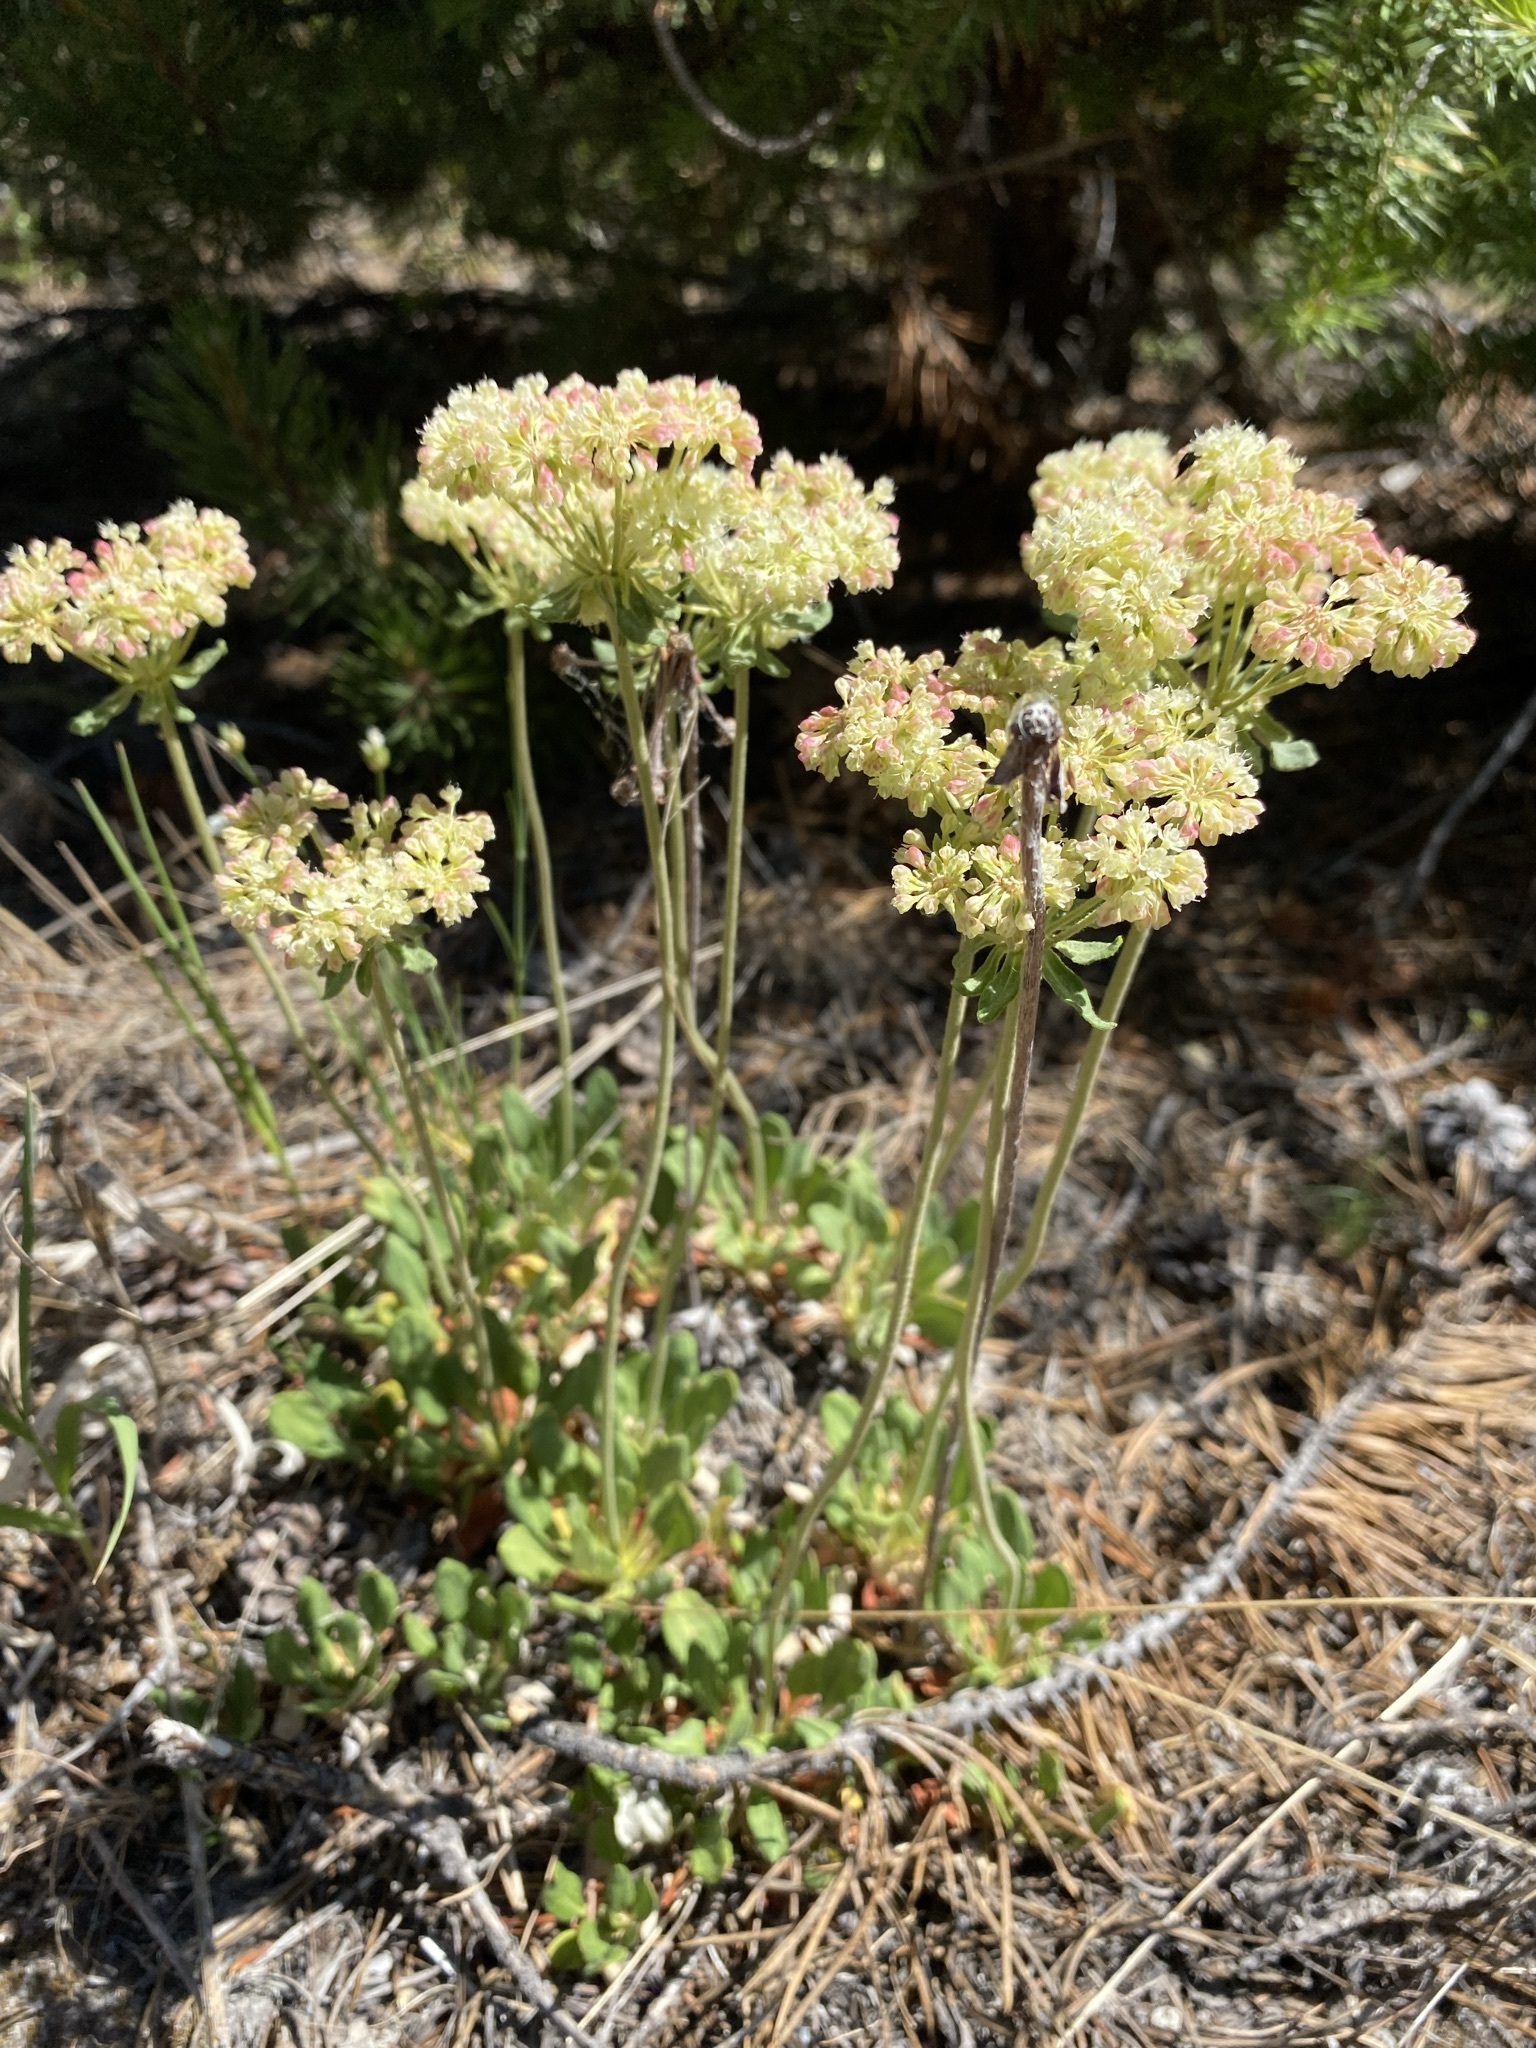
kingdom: Plantae
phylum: Tracheophyta
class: Magnoliopsida
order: Caryophyllales
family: Polygonaceae
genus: Eriogonum
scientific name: Eriogonum umbellatum
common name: Sulfur-buckwheat
